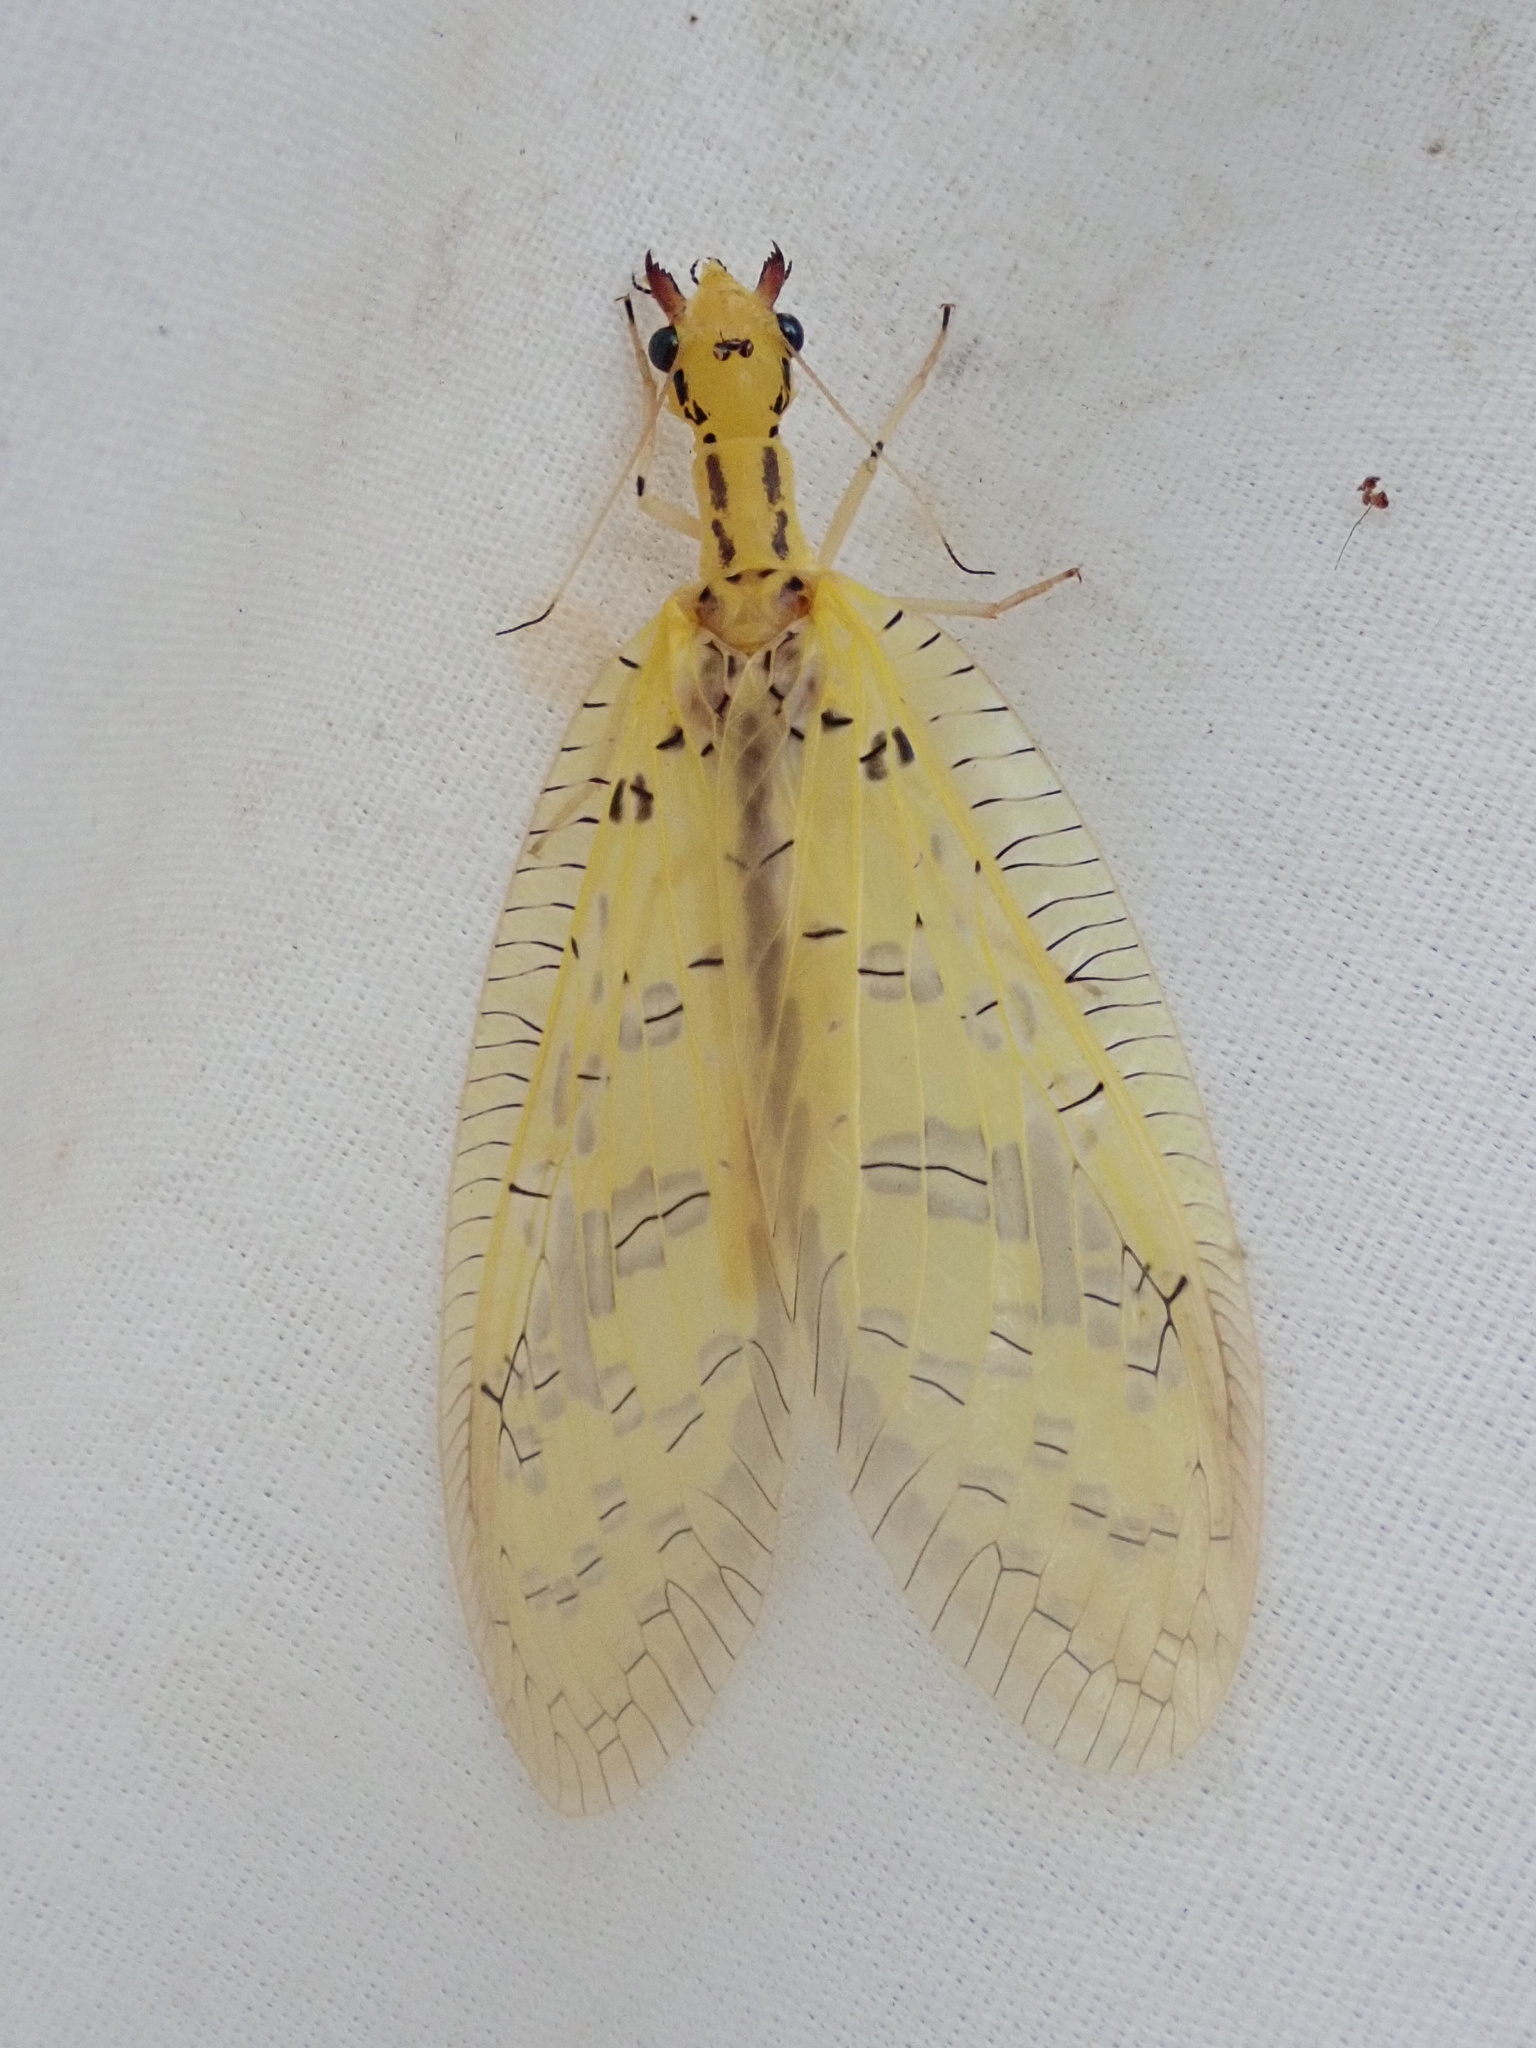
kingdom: Animalia
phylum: Arthropoda
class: Insecta
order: Megaloptera
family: Corydalidae
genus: Chloronia
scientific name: Chloronia yungas
